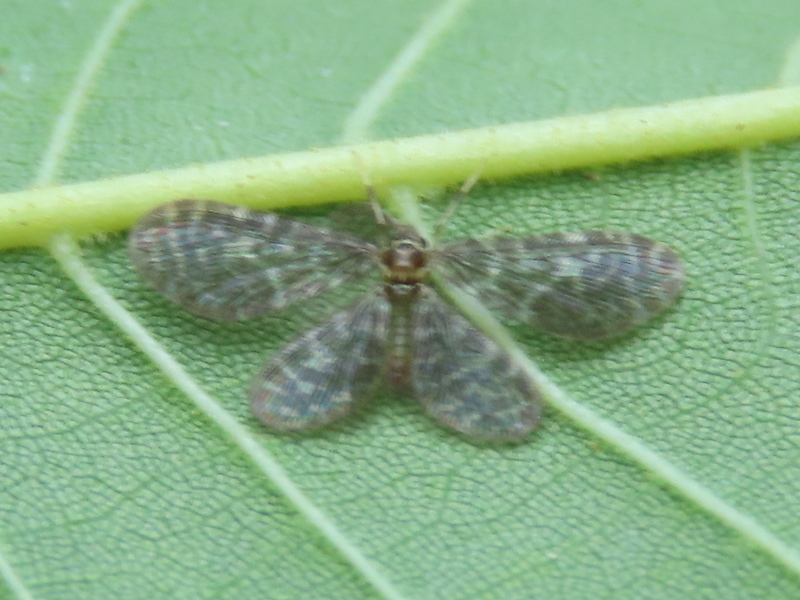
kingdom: Animalia
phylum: Arthropoda
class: Insecta
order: Neuroptera
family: Dilaridae
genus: Nallachius
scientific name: Nallachius americanus
